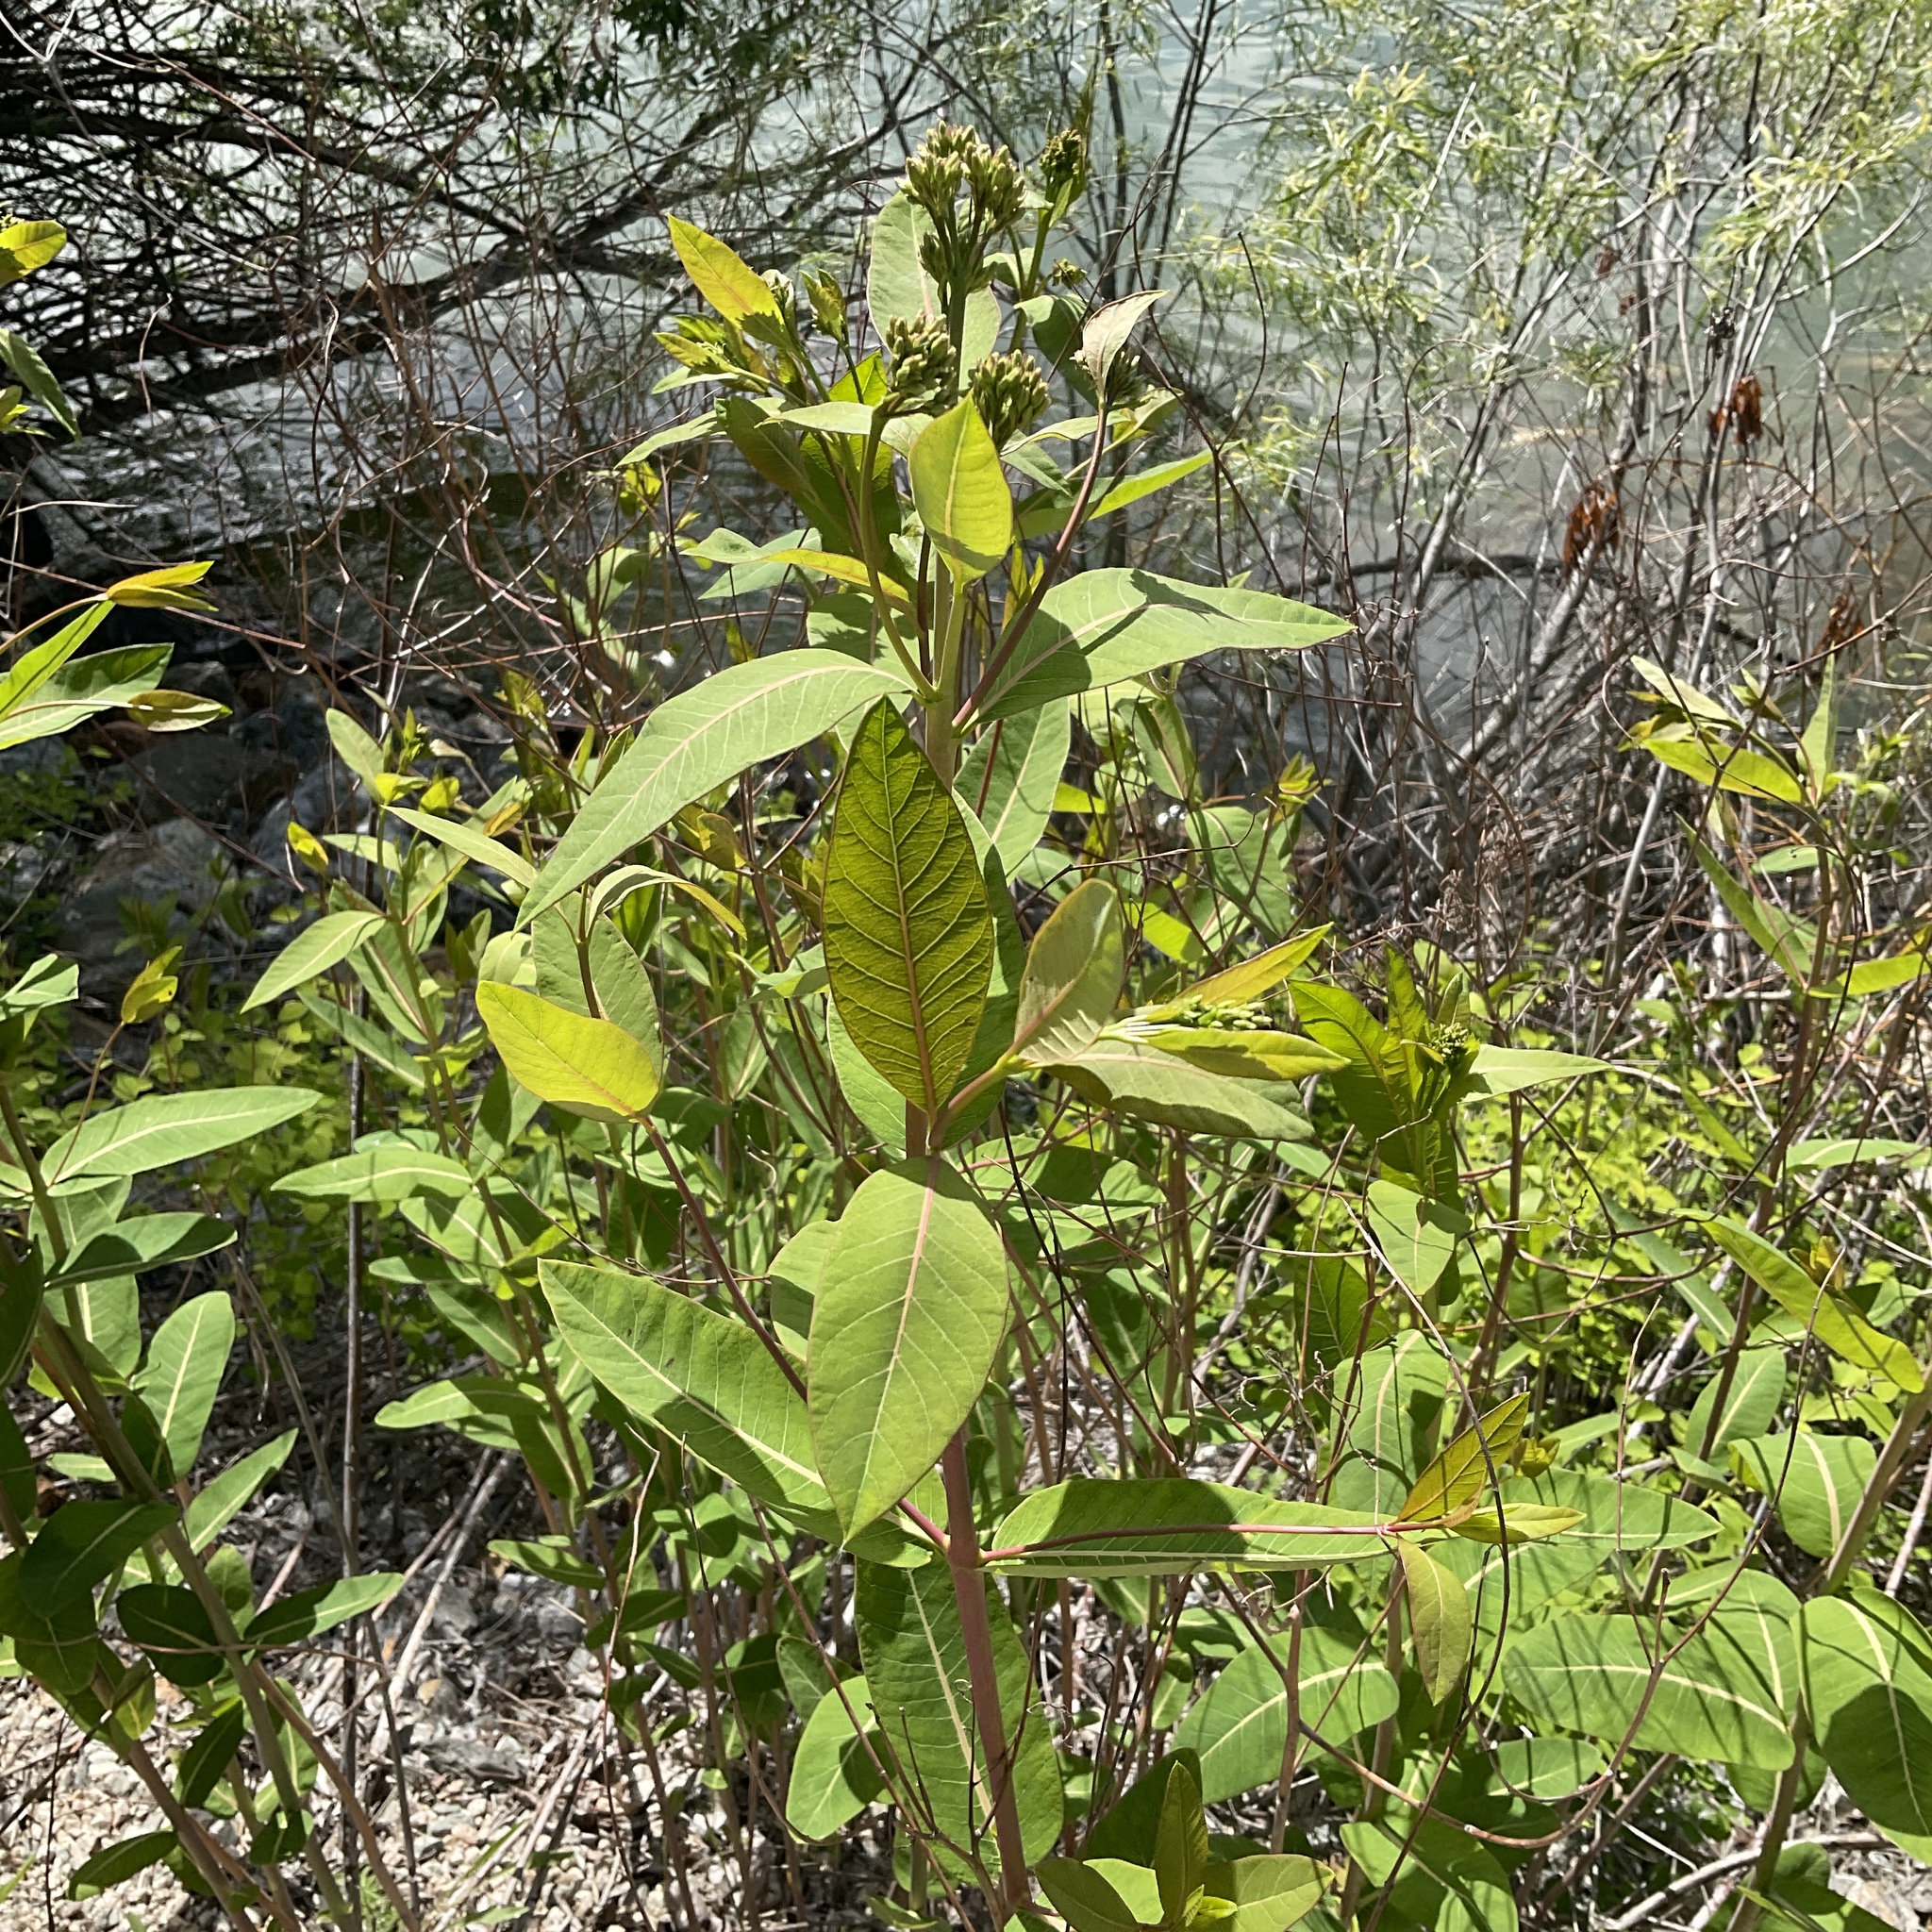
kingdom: Plantae
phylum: Tracheophyta
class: Magnoliopsida
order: Gentianales
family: Apocynaceae
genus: Apocynum
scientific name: Apocynum cannabinum
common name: Hemp dogbane
